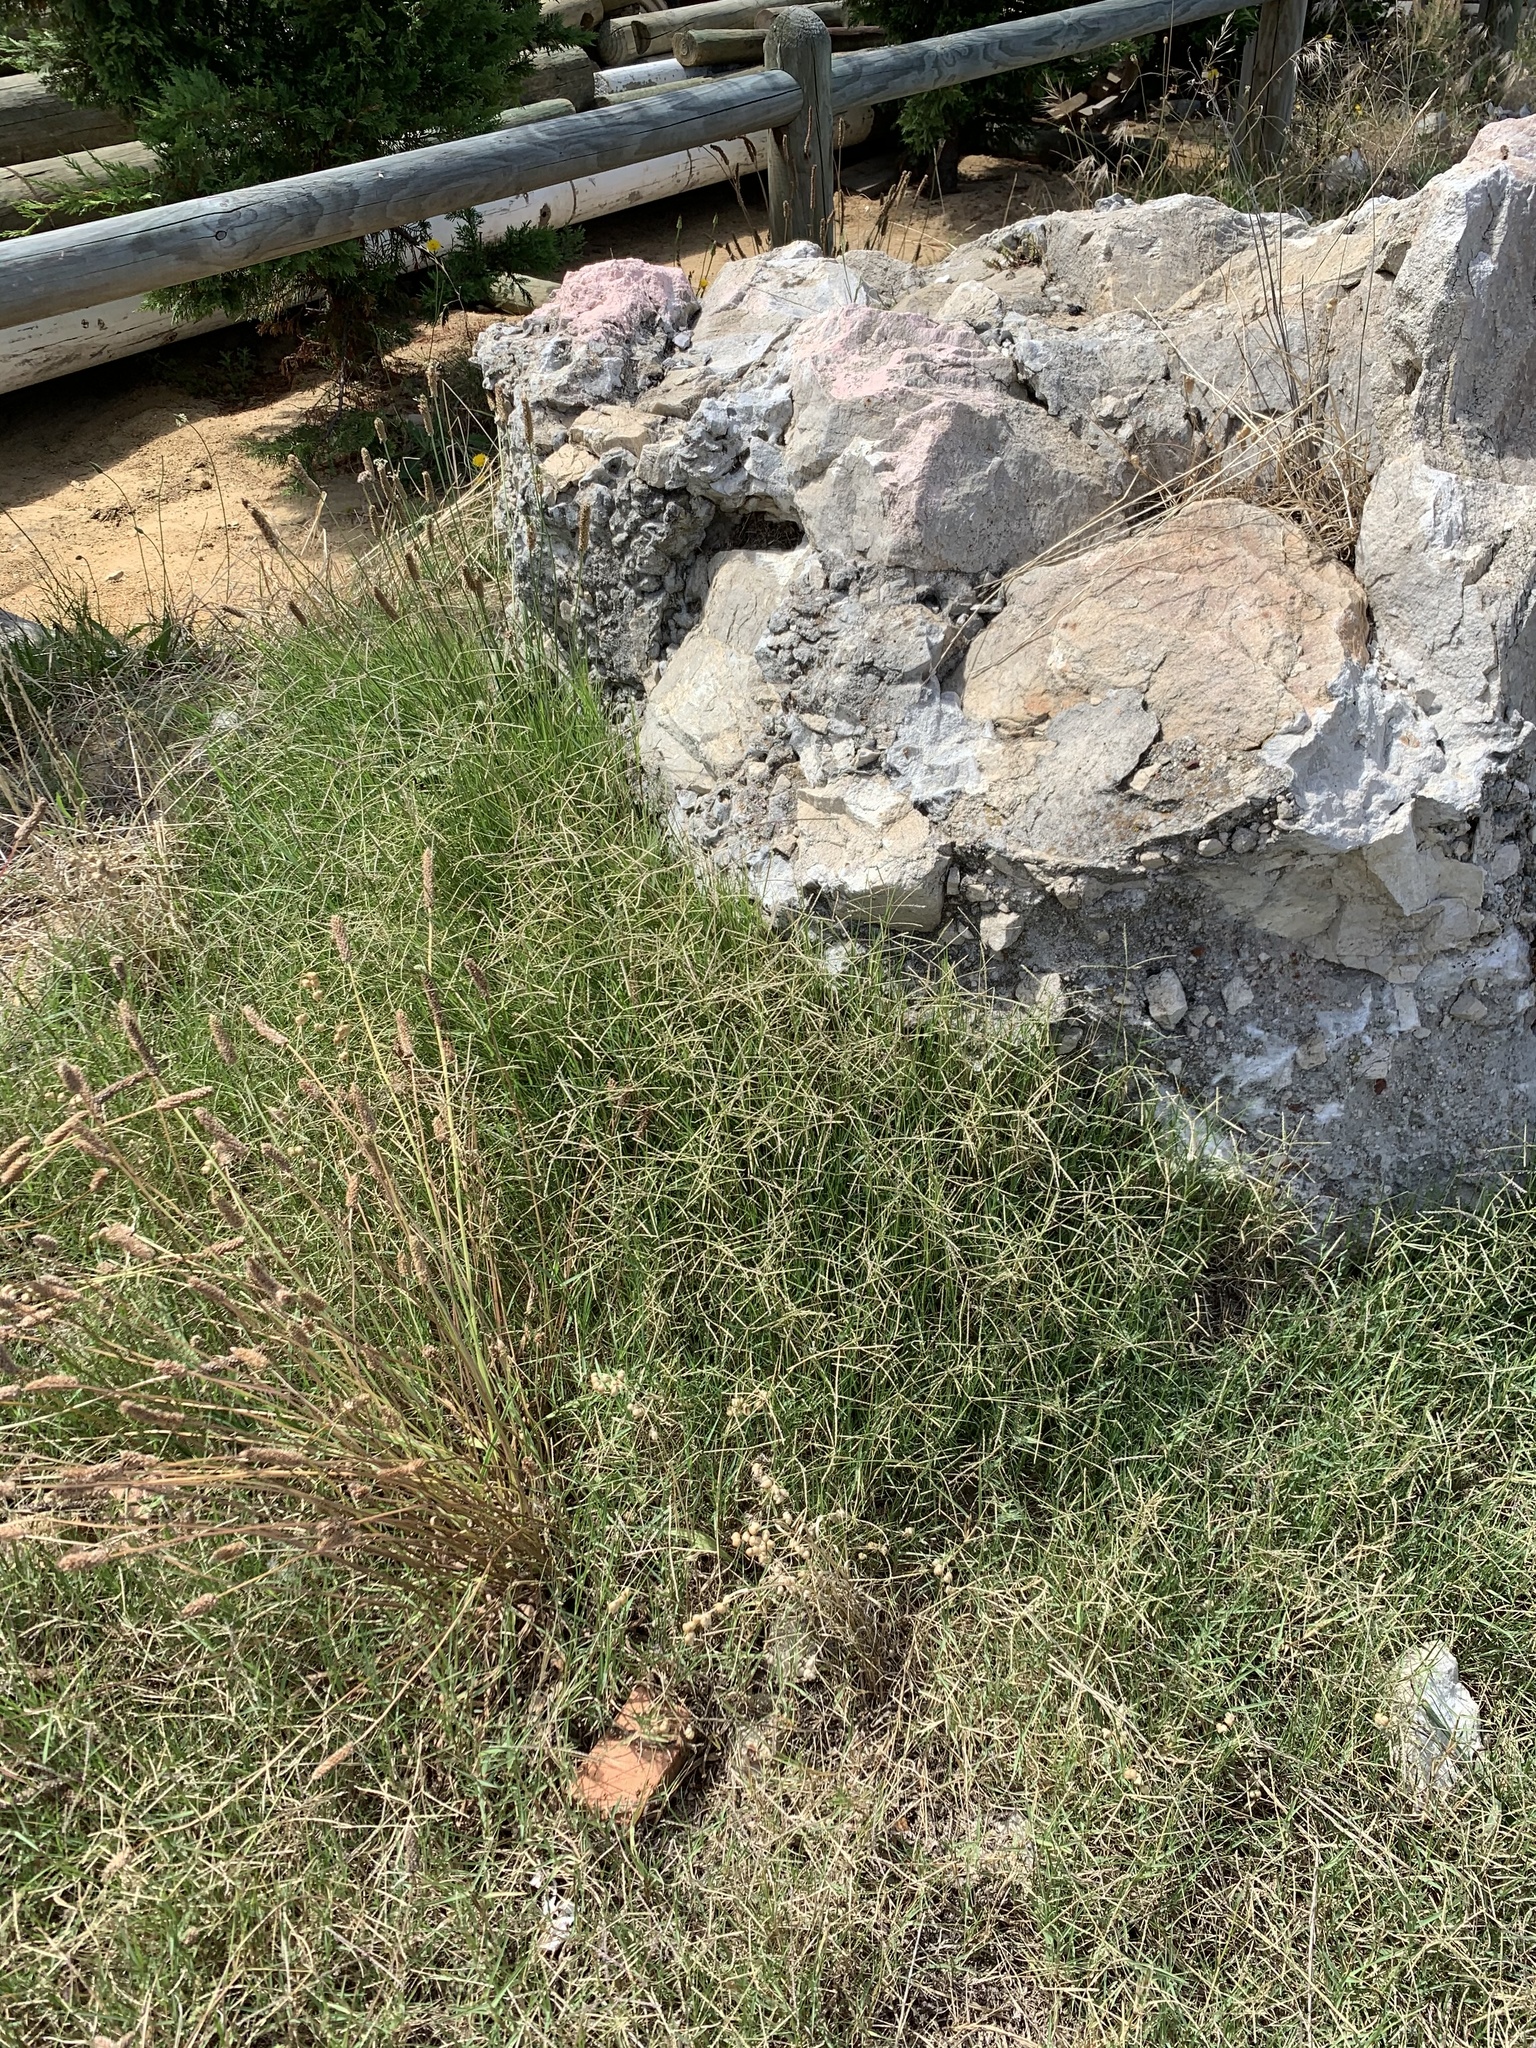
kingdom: Plantae
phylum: Tracheophyta
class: Liliopsida
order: Poales
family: Poaceae
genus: Cynodon
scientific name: Cynodon dactylon
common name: Bermuda grass
